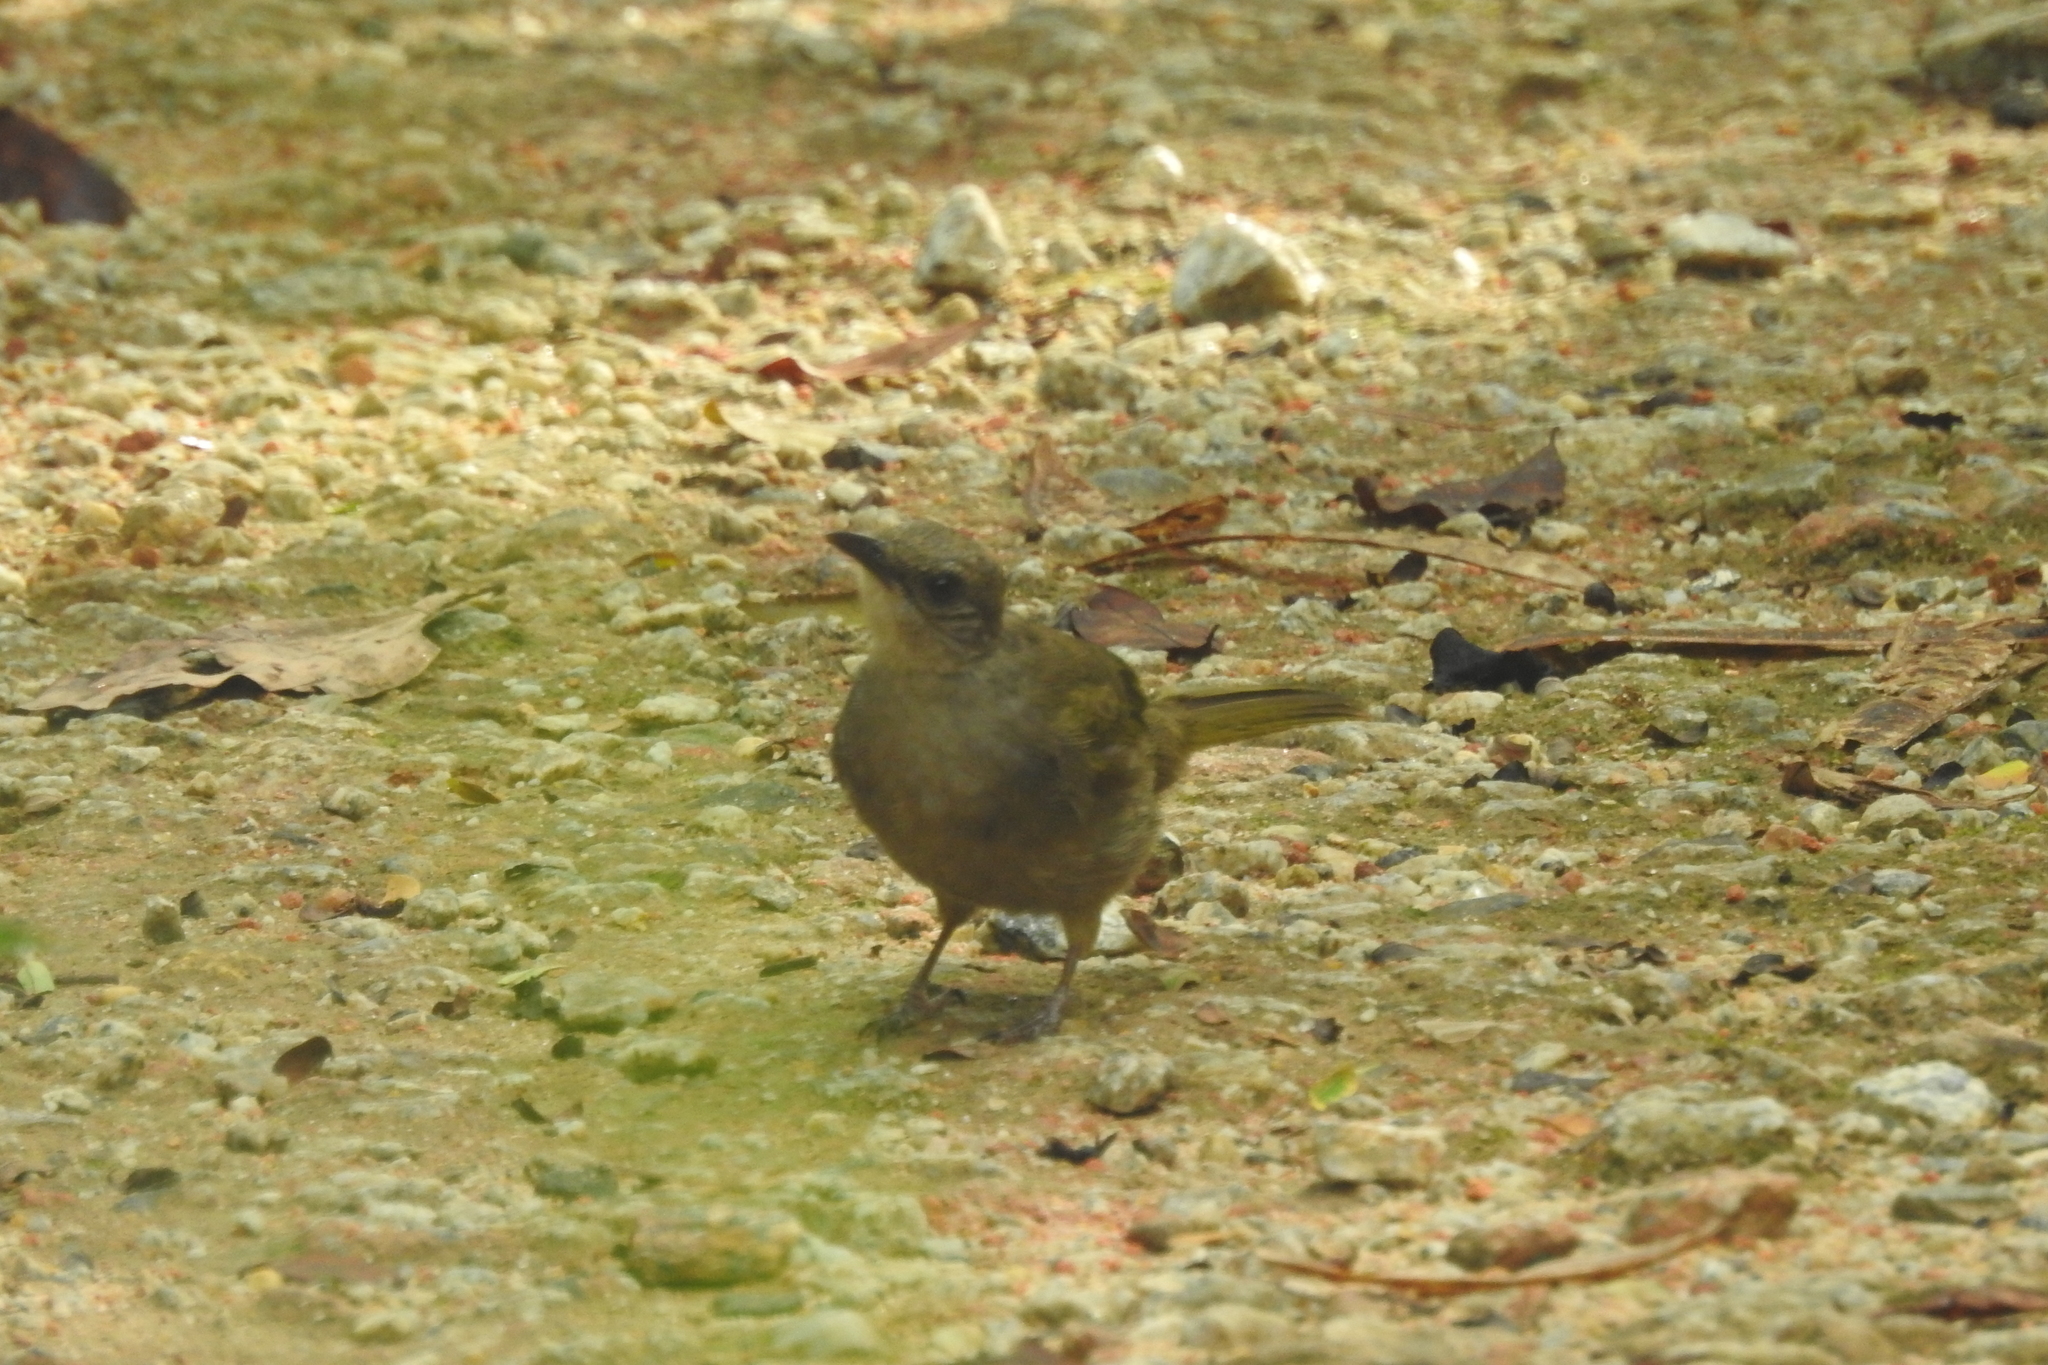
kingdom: Animalia
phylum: Chordata
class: Aves
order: Passeriformes
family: Pycnonotidae
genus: Pycnonotus
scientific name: Pycnonotus plumosus
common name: Olive-winged bulbul
